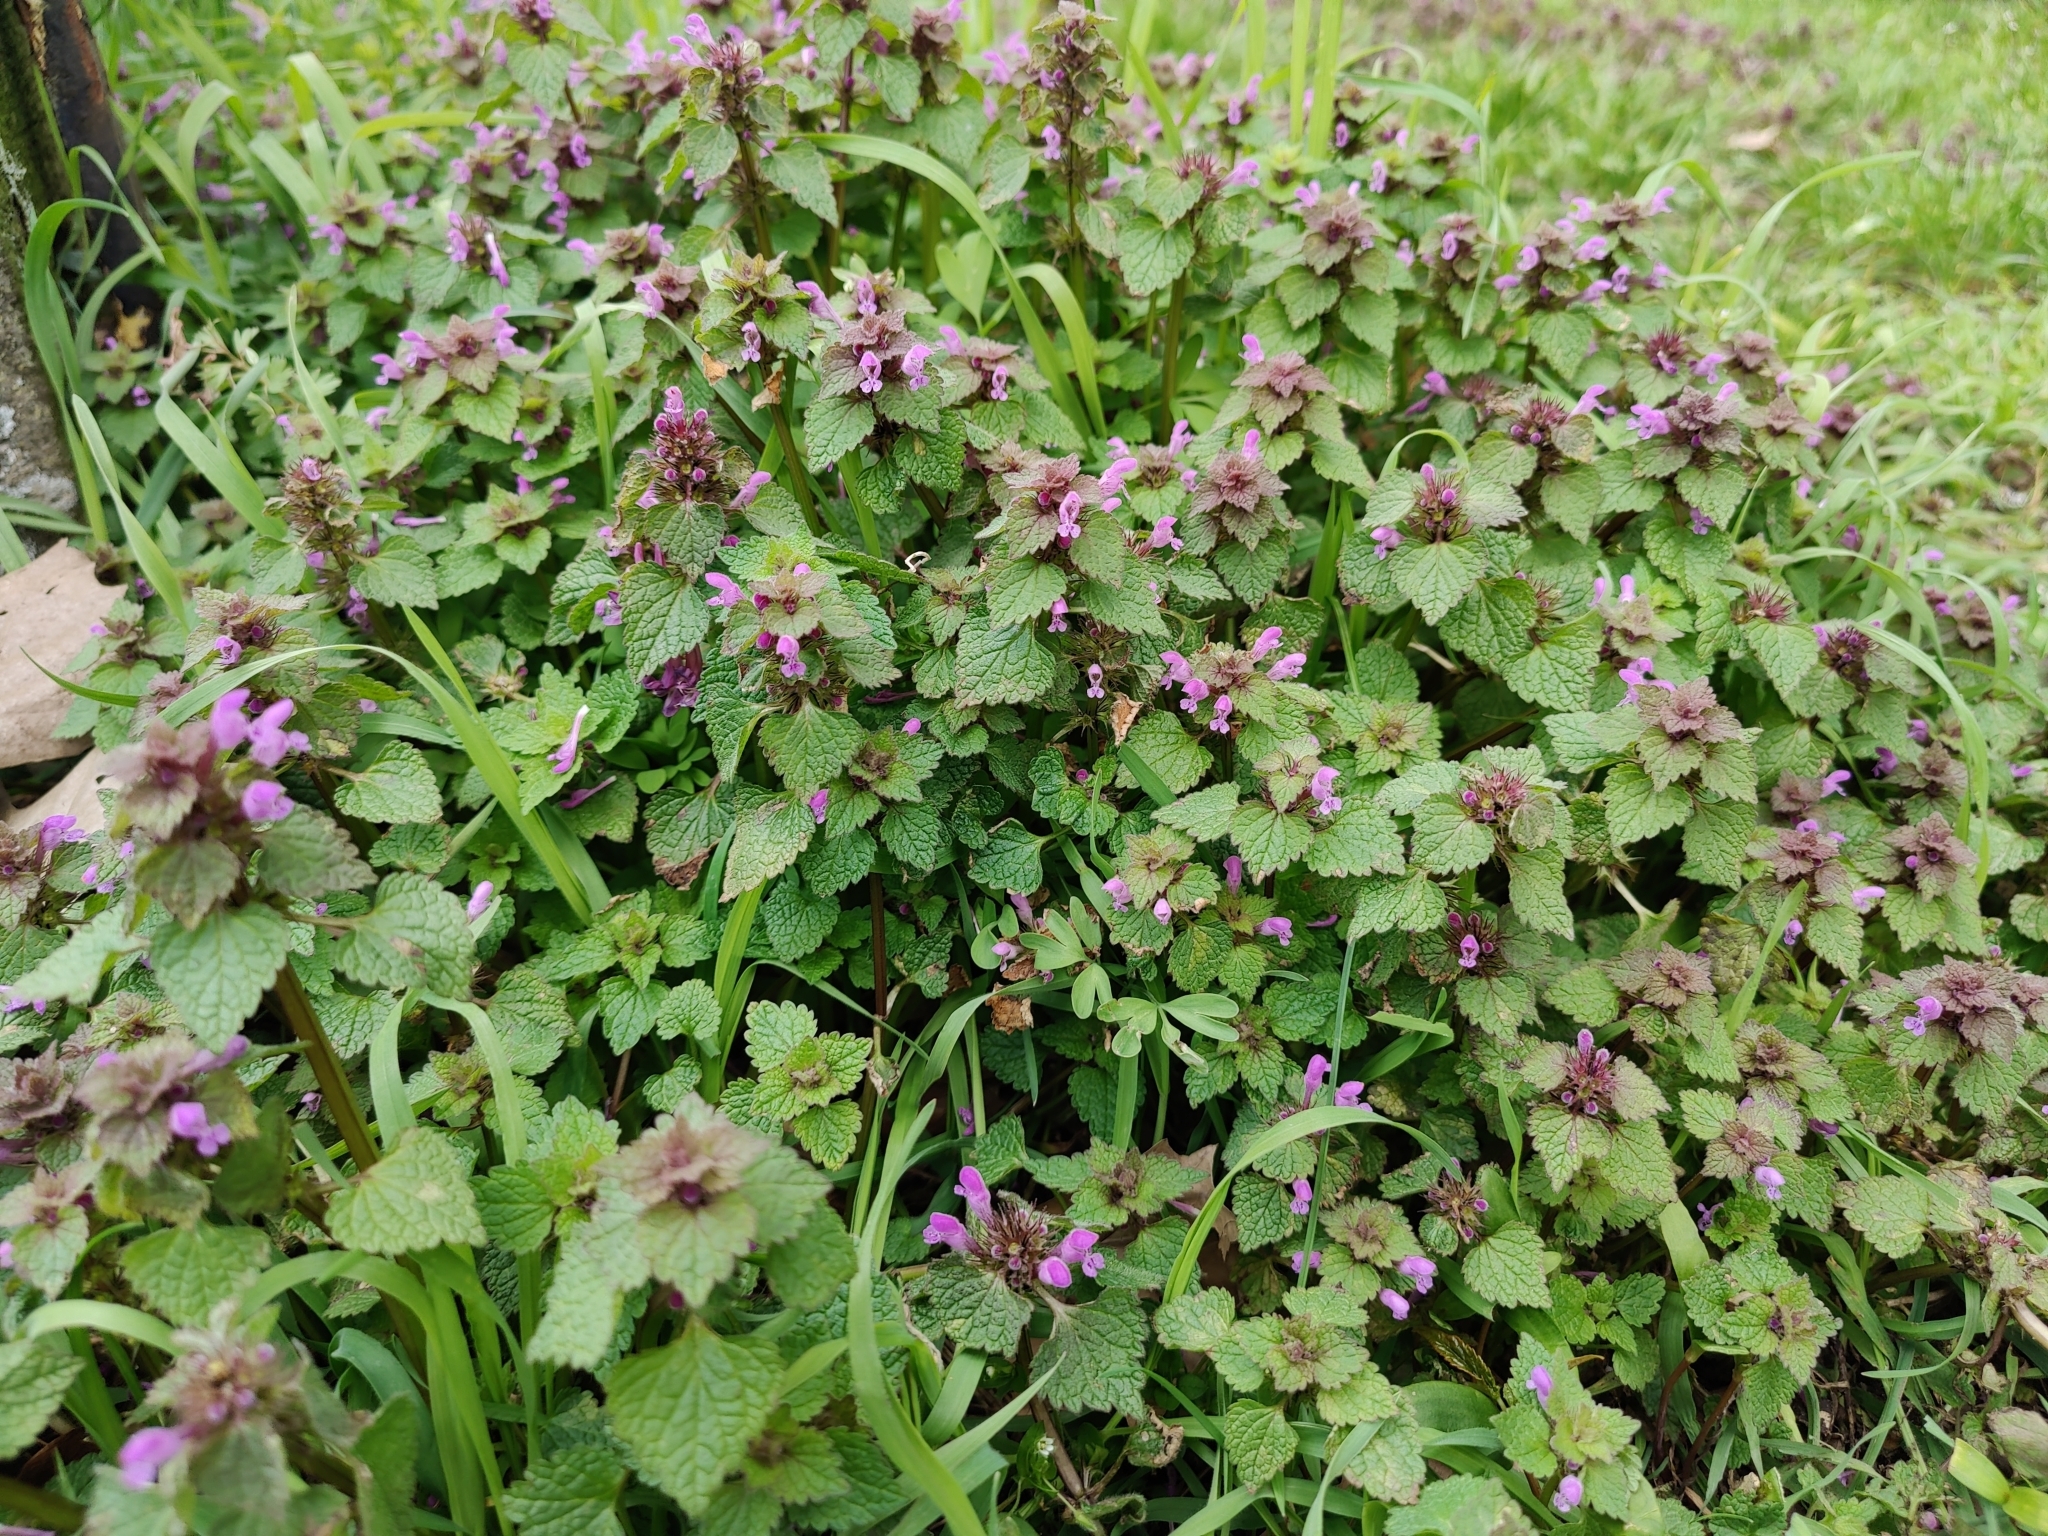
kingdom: Plantae
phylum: Tracheophyta
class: Magnoliopsida
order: Lamiales
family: Lamiaceae
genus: Lamium
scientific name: Lamium purpureum
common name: Red dead-nettle
